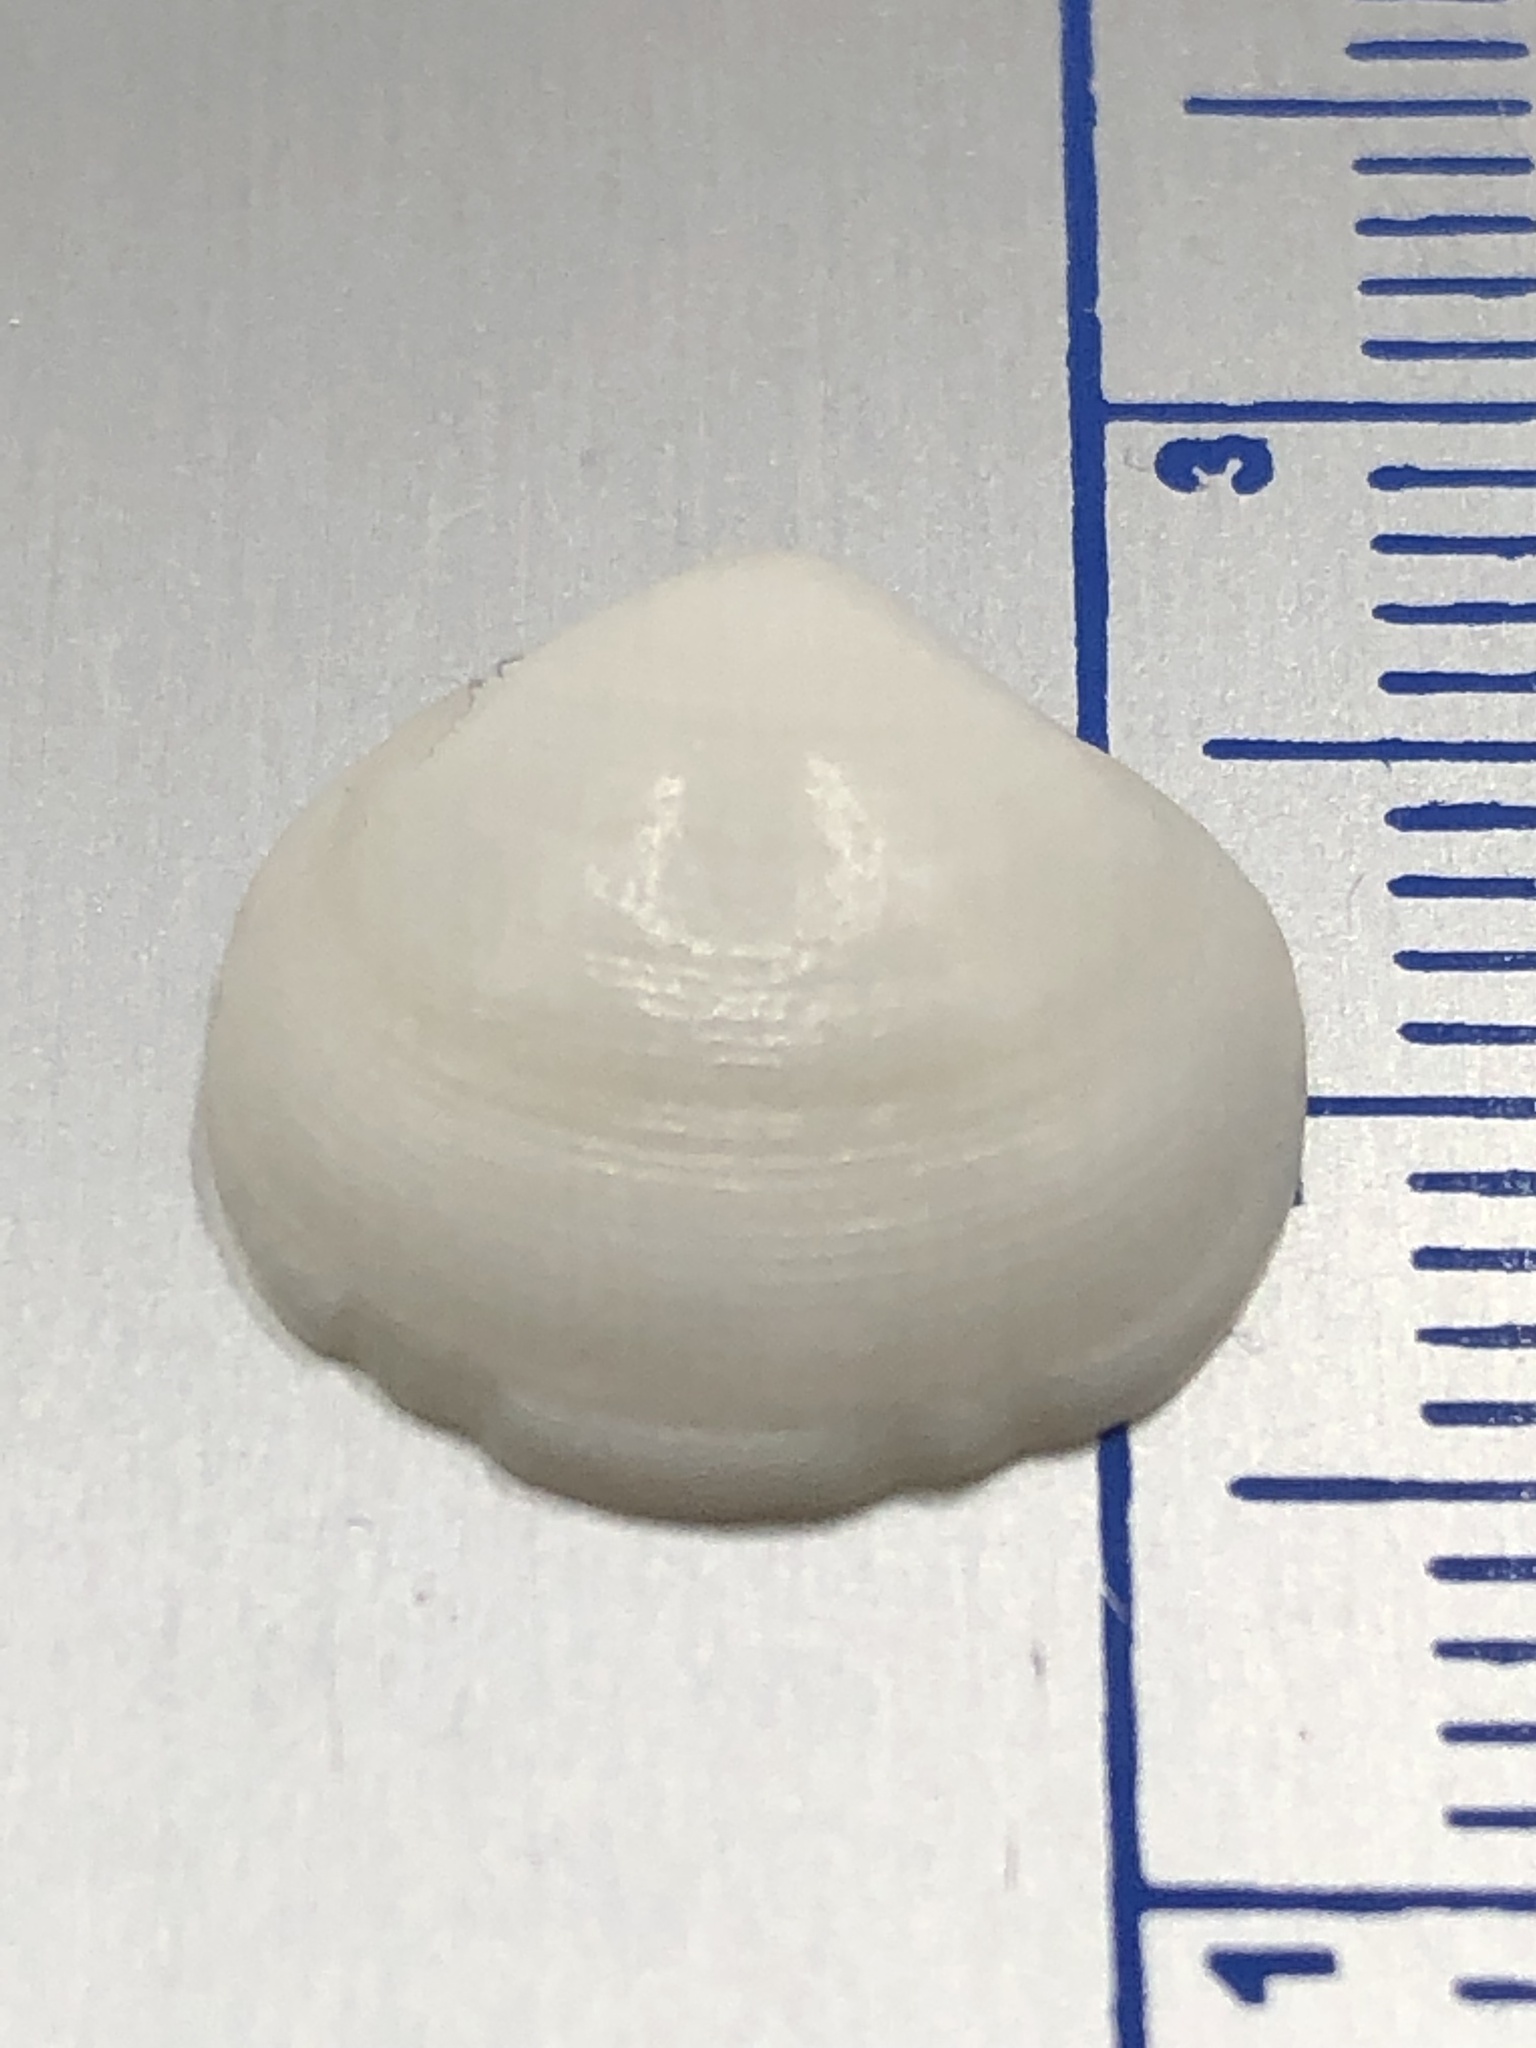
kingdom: Animalia
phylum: Mollusca
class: Bivalvia
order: Lucinida
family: Lucinidae
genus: Callucina
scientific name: Callucina keenae
